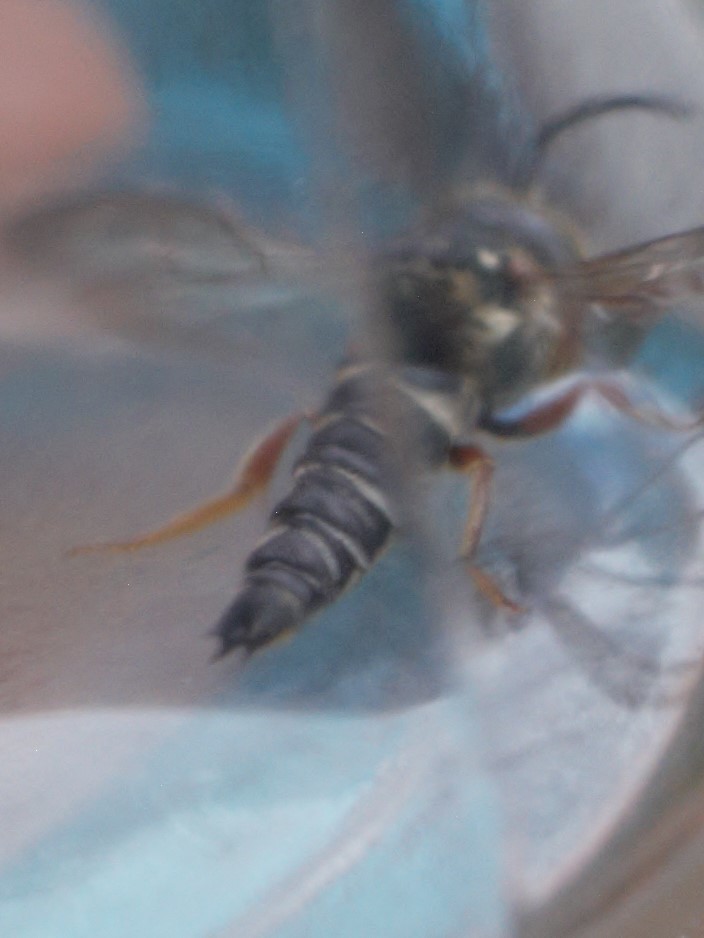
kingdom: Animalia
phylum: Arthropoda
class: Insecta
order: Hymenoptera
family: Megachilidae
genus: Boreocoelioxys
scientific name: Boreocoelioxys
